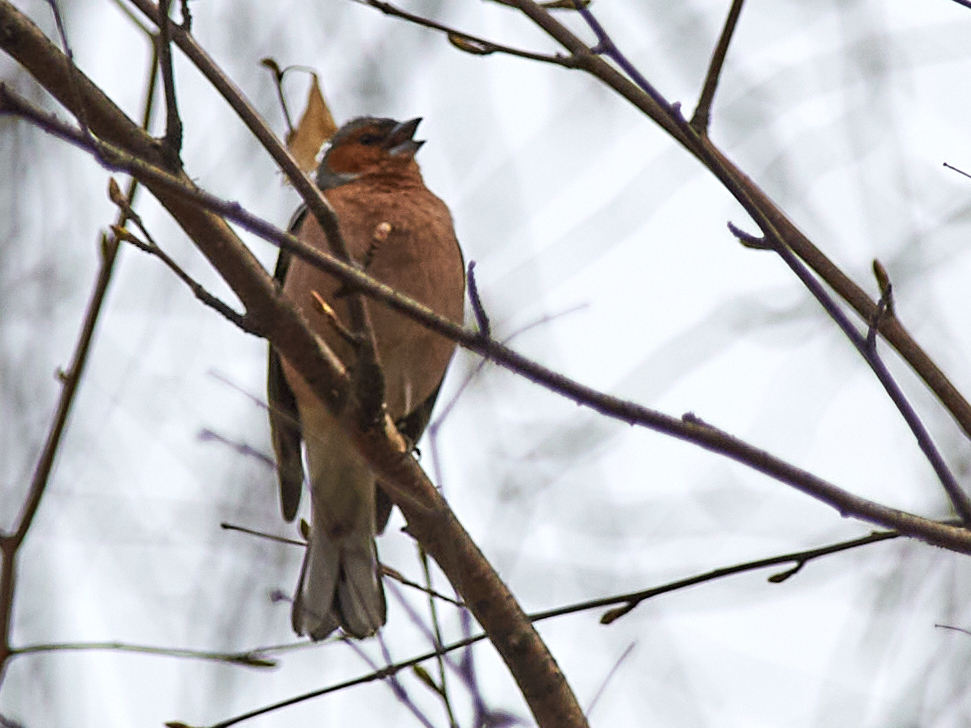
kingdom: Animalia
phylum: Chordata
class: Aves
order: Passeriformes
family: Fringillidae
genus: Fringilla
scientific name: Fringilla coelebs
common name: Common chaffinch
